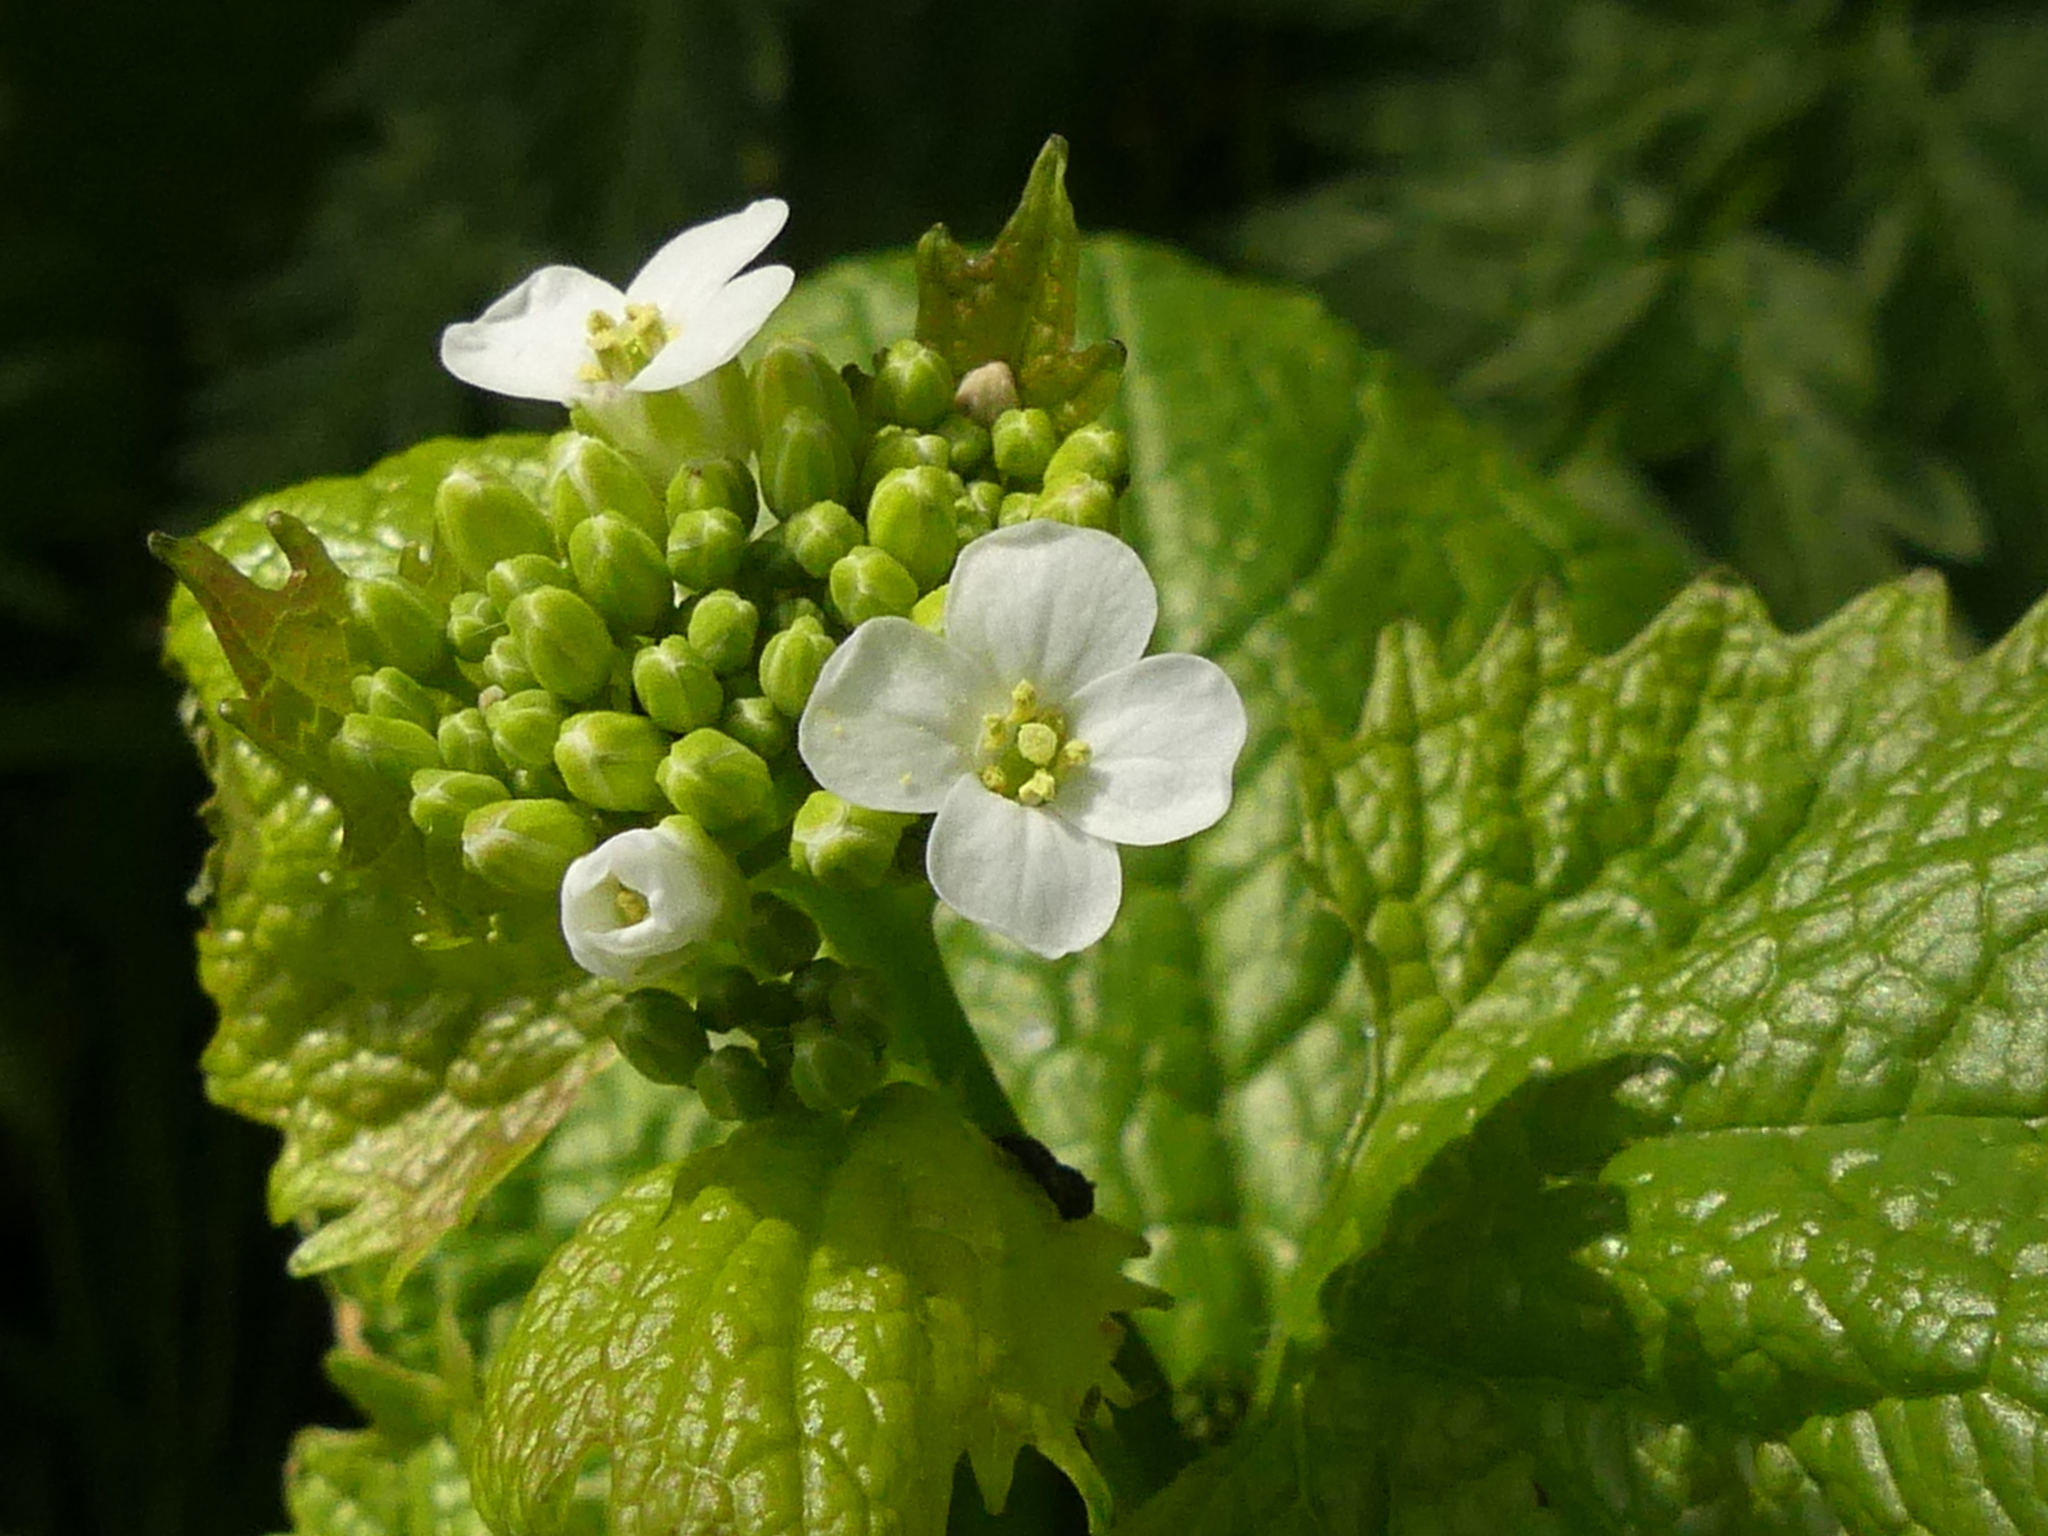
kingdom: Plantae
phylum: Tracheophyta
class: Magnoliopsida
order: Brassicales
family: Brassicaceae
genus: Alliaria
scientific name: Alliaria petiolata
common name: Garlic mustard
